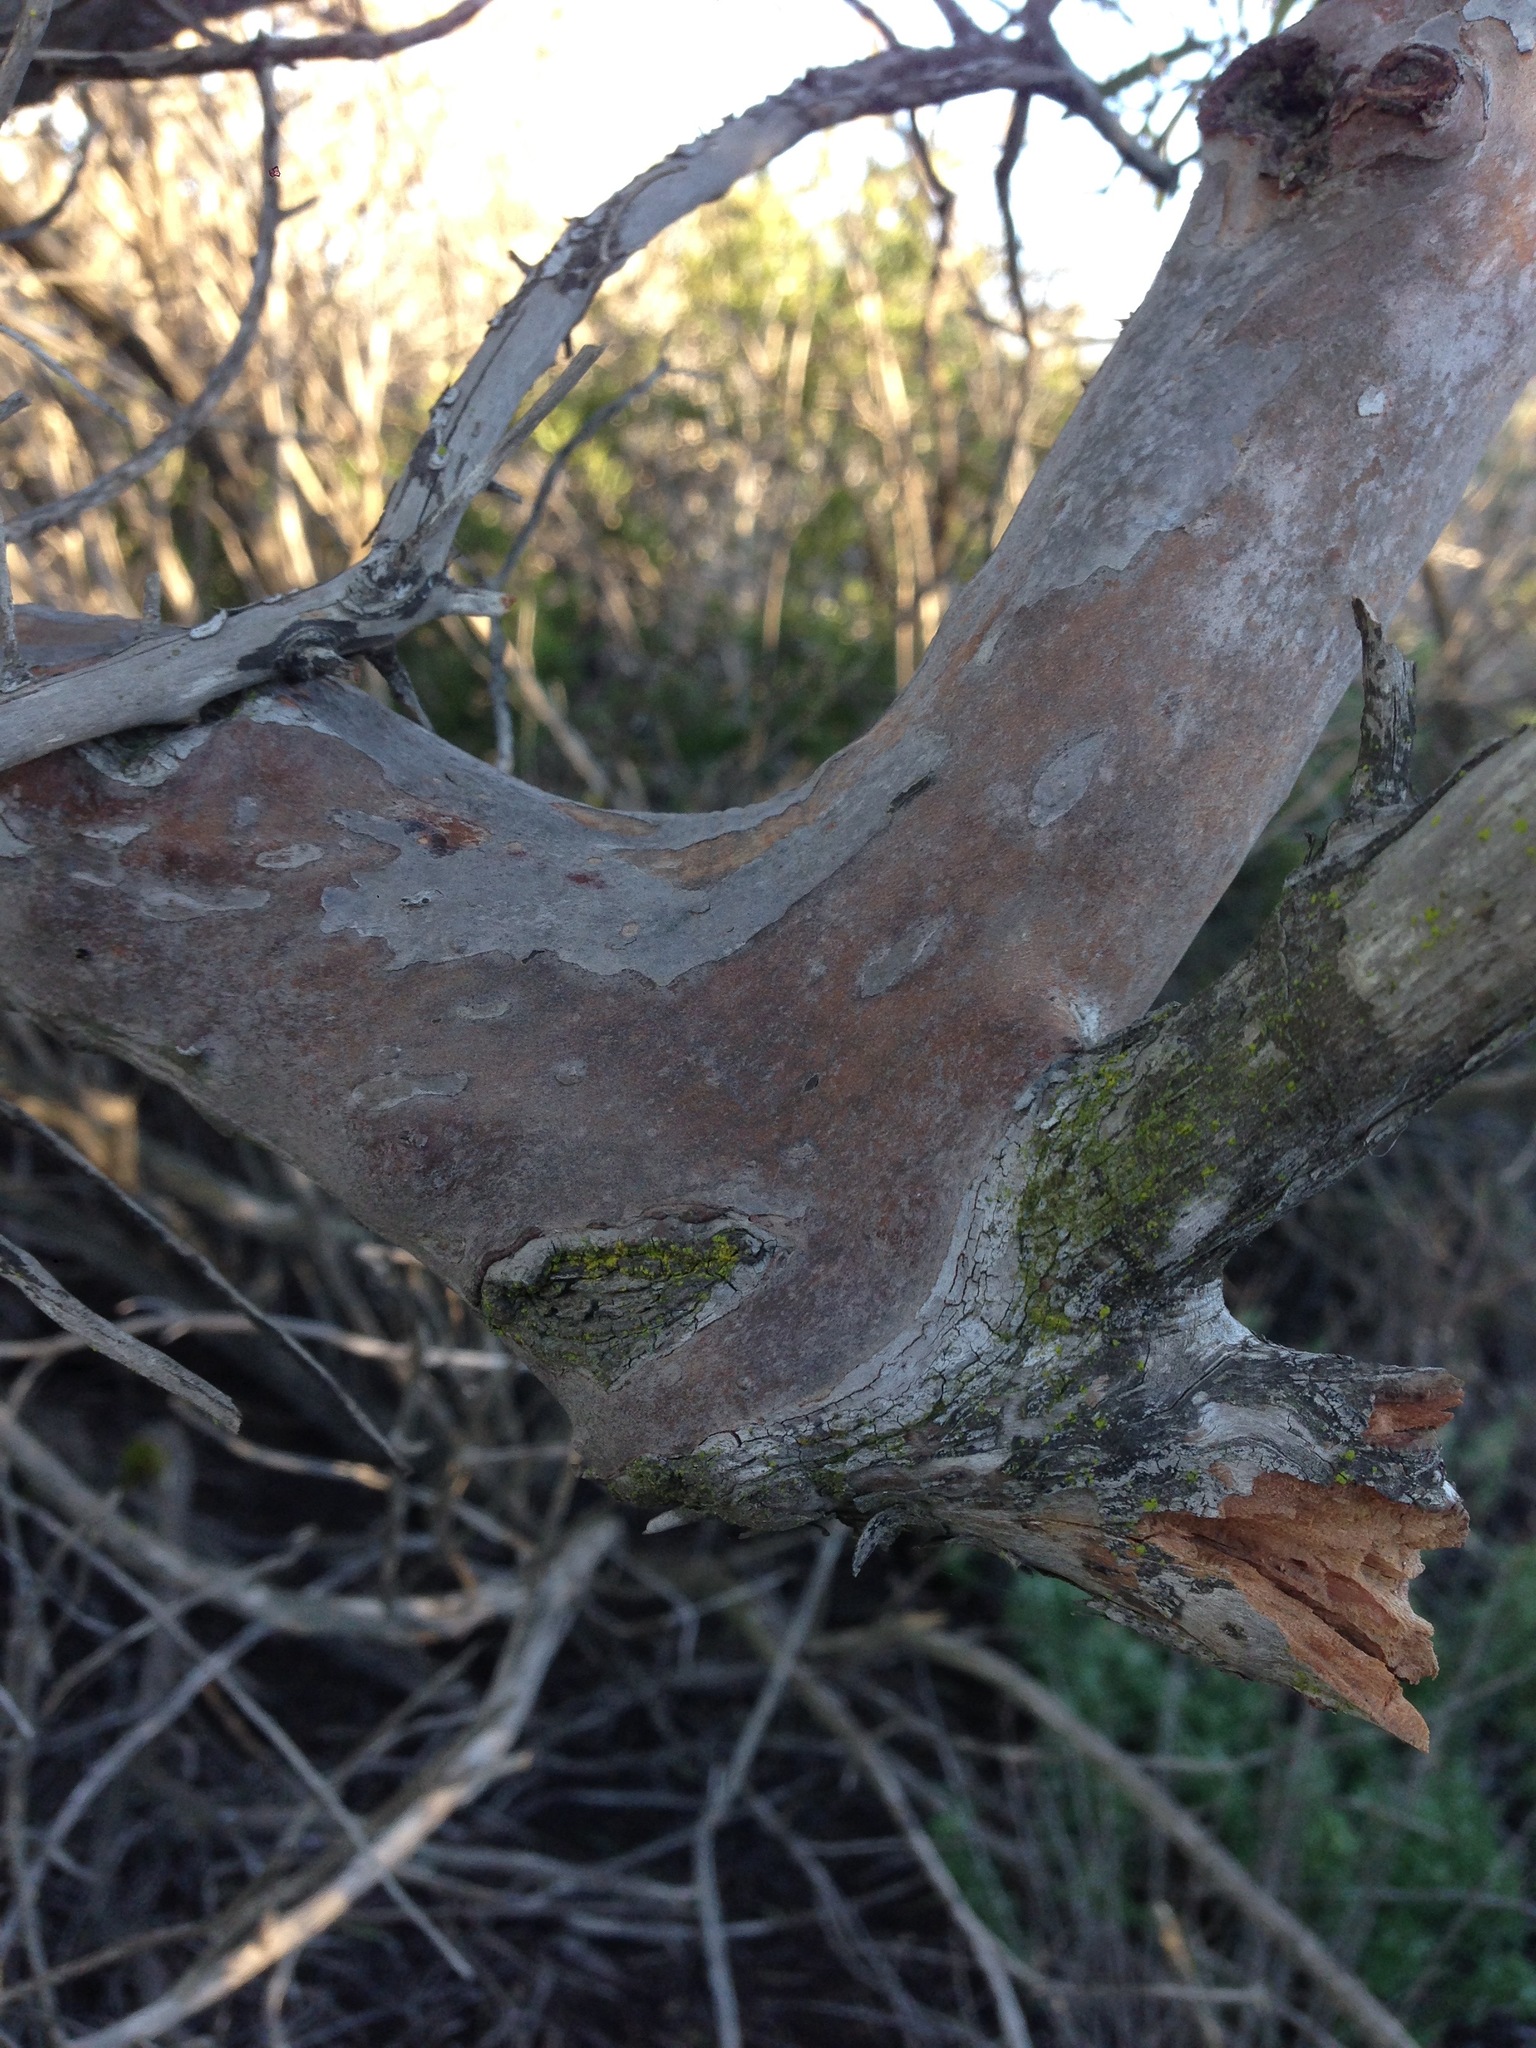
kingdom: Plantae
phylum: Tracheophyta
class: Magnoliopsida
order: Ericales
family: Ericaceae
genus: Ornithostaphylos
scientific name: Ornithostaphylos oppositifolia
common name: Baja california birdbush
